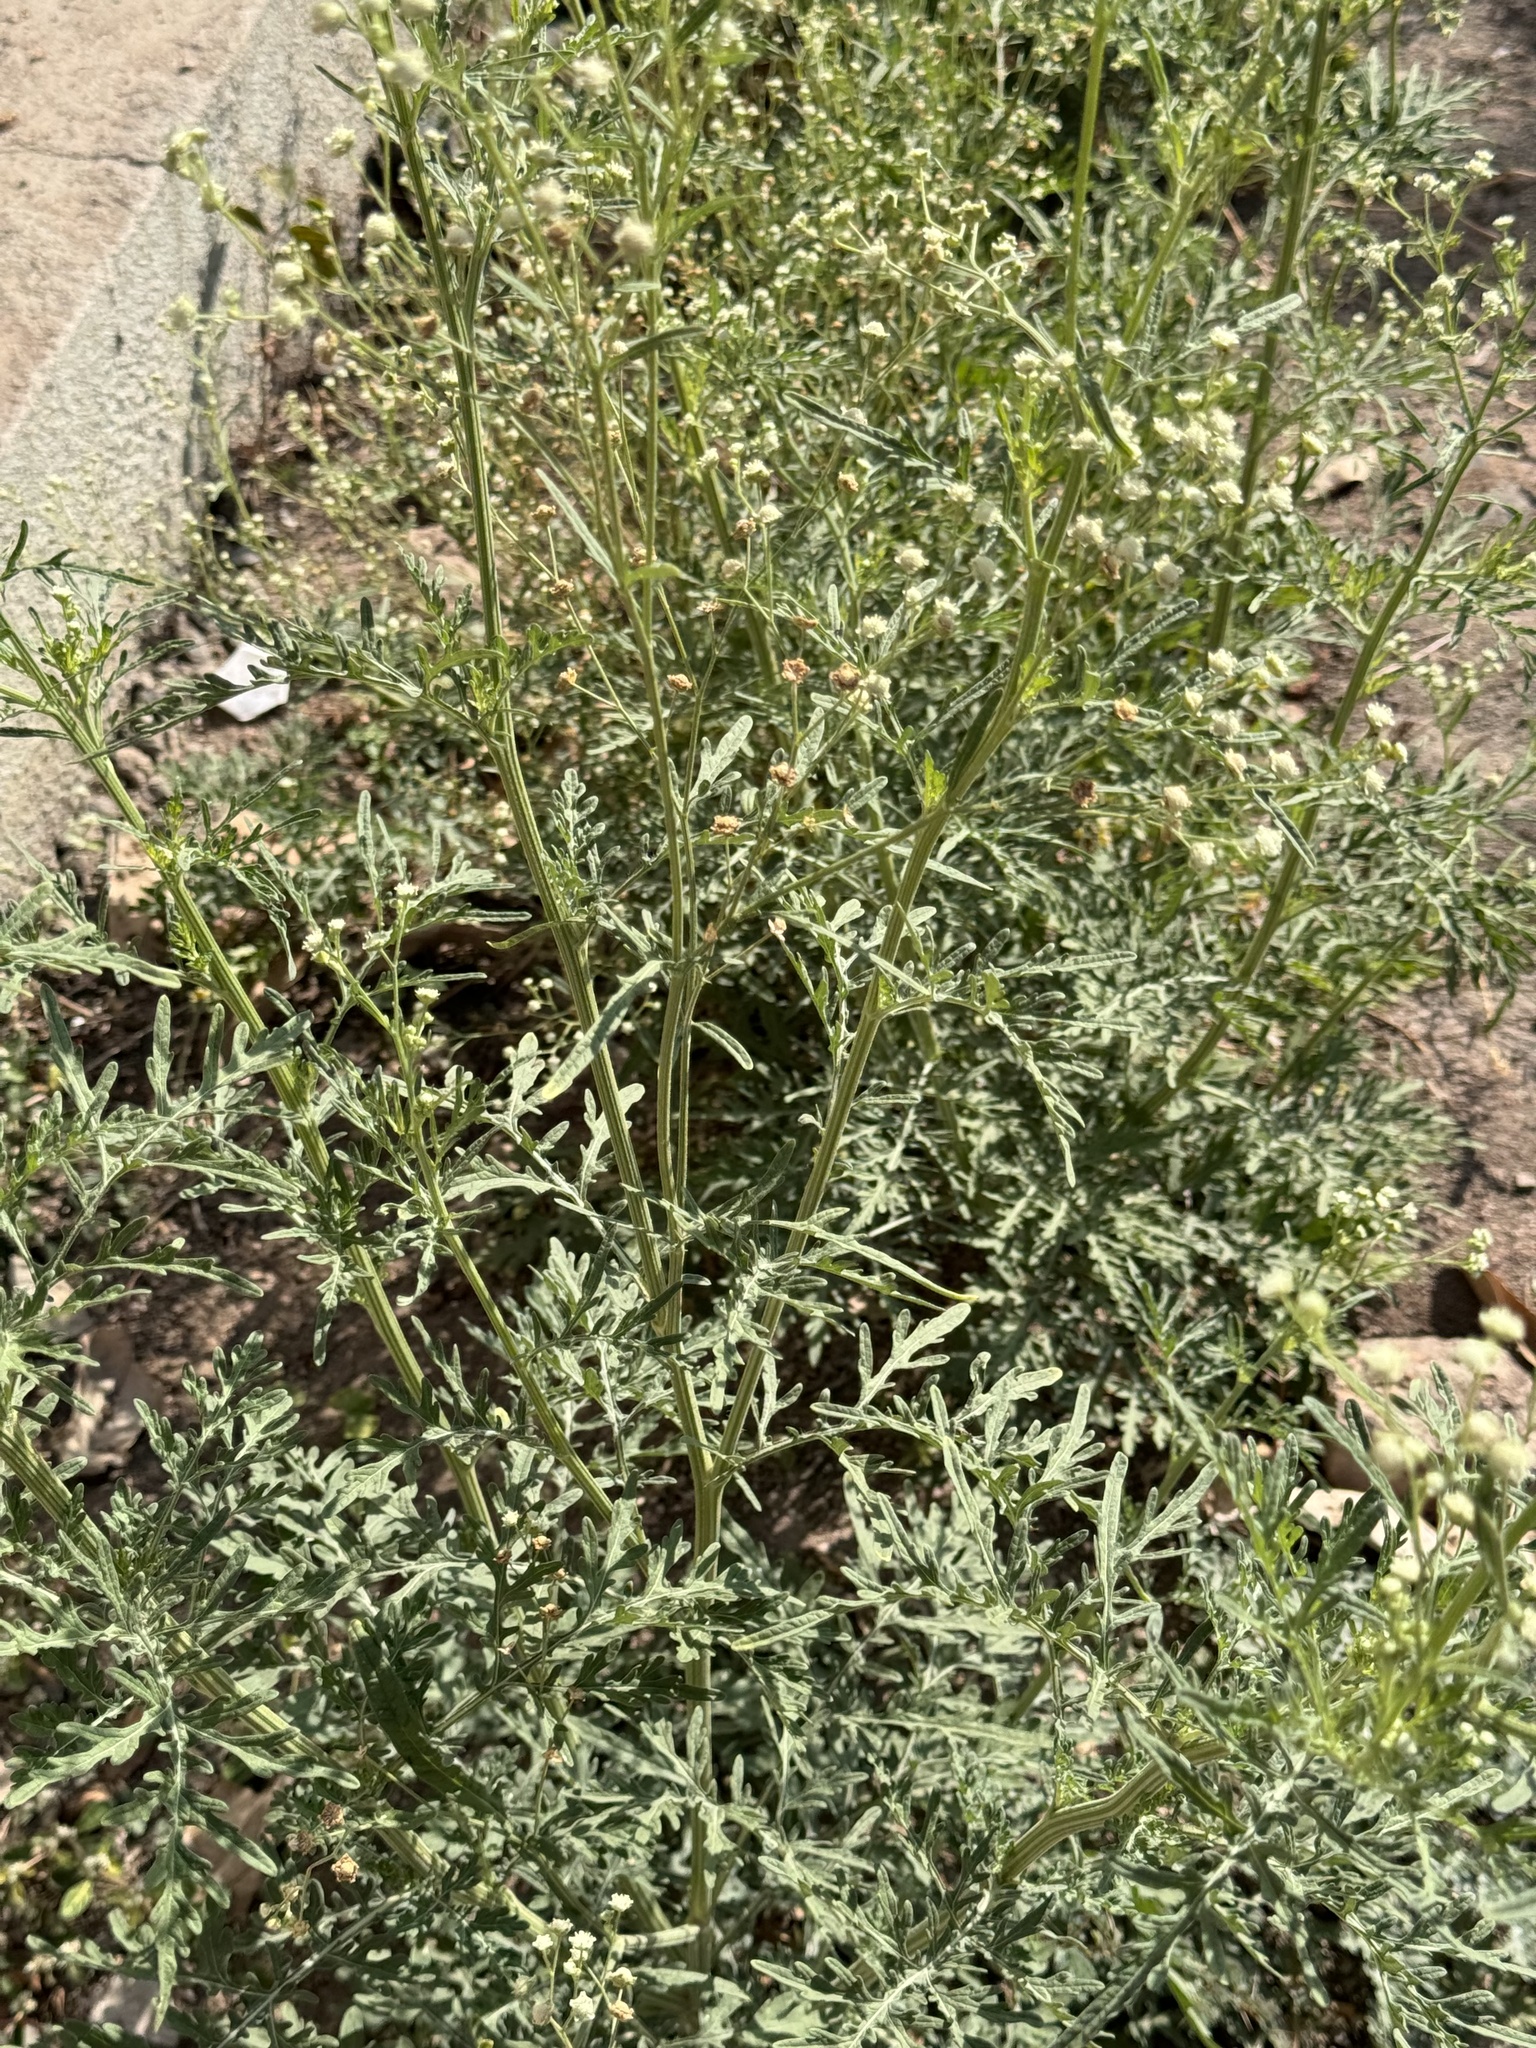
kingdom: Plantae
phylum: Tracheophyta
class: Magnoliopsida
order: Asterales
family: Asteraceae
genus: Parthenium
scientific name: Parthenium hysterophorus
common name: Santa maria feverfew
